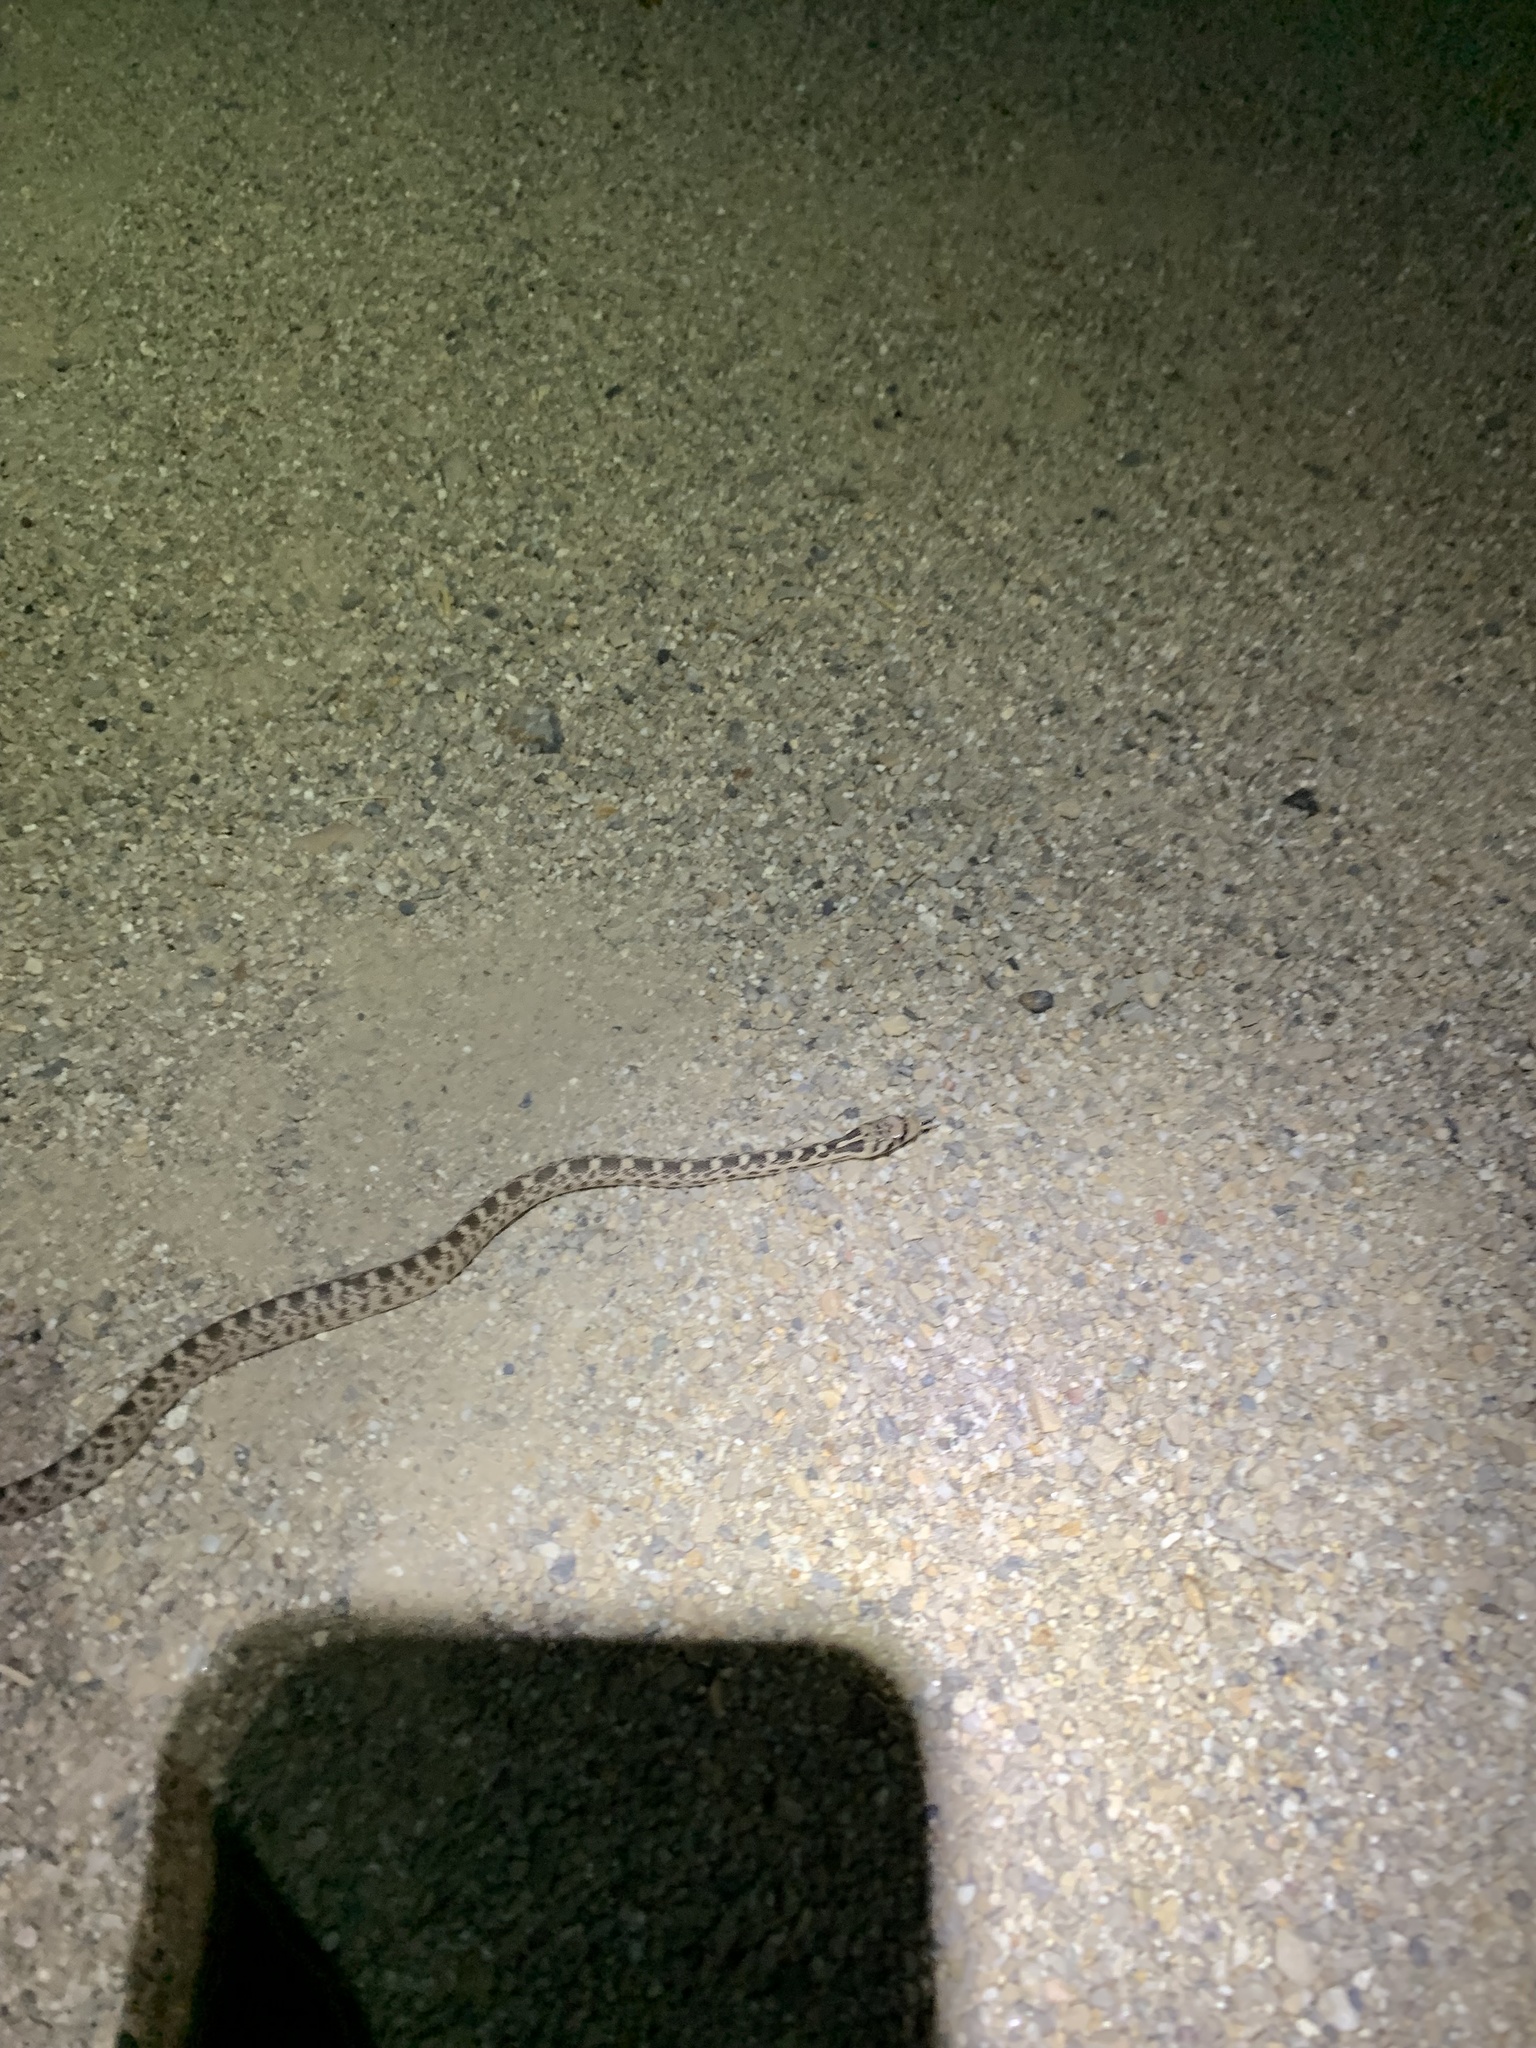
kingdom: Animalia
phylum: Chordata
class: Squamata
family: Colubridae
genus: Pituophis
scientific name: Pituophis catenifer
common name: Gopher snake
